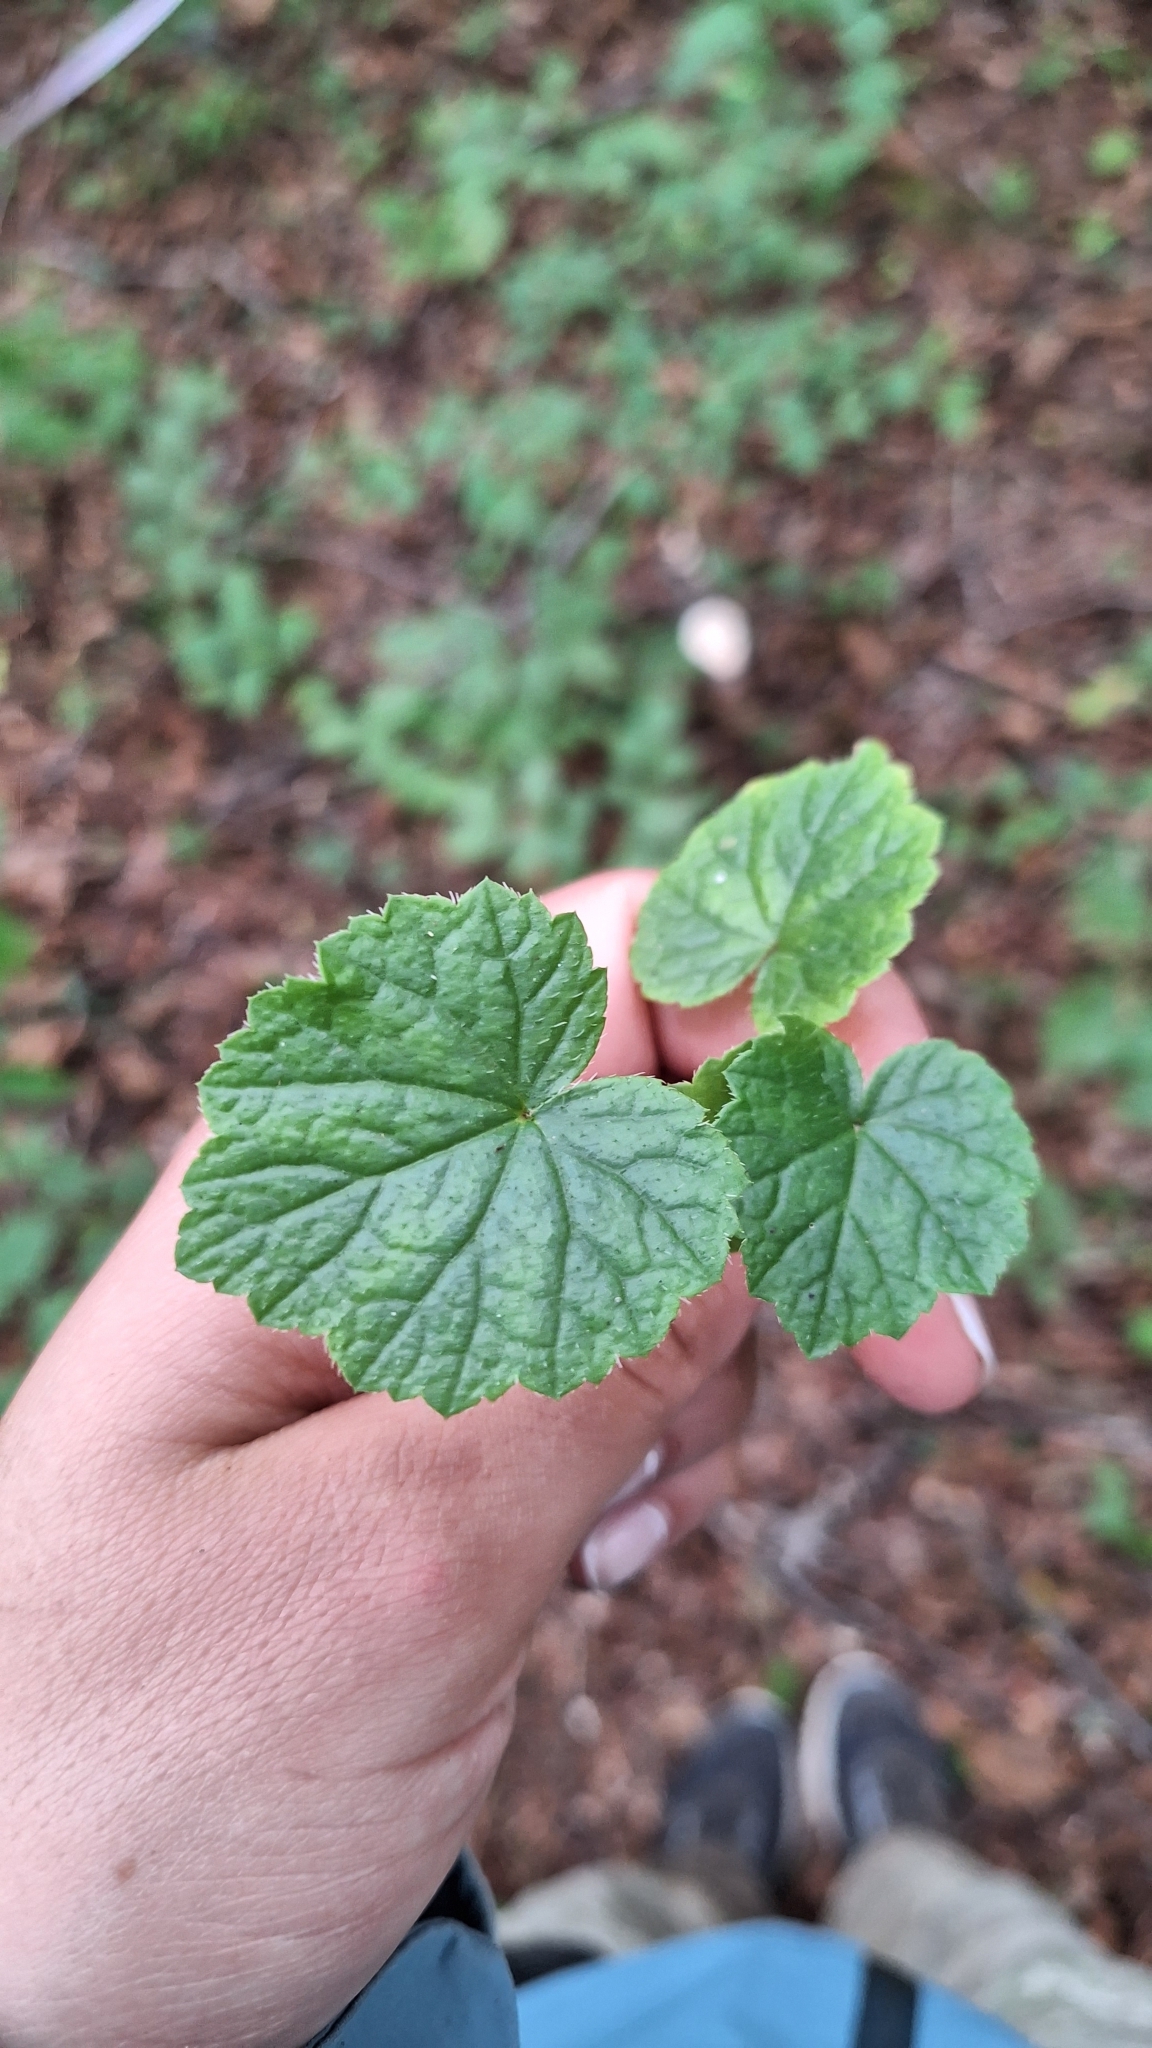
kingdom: Plantae
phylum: Tracheophyta
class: Magnoliopsida
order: Saxifragales
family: Saxifragaceae
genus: Mitella
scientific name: Mitella nuda
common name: Bare-stemmed bishop's-cap
